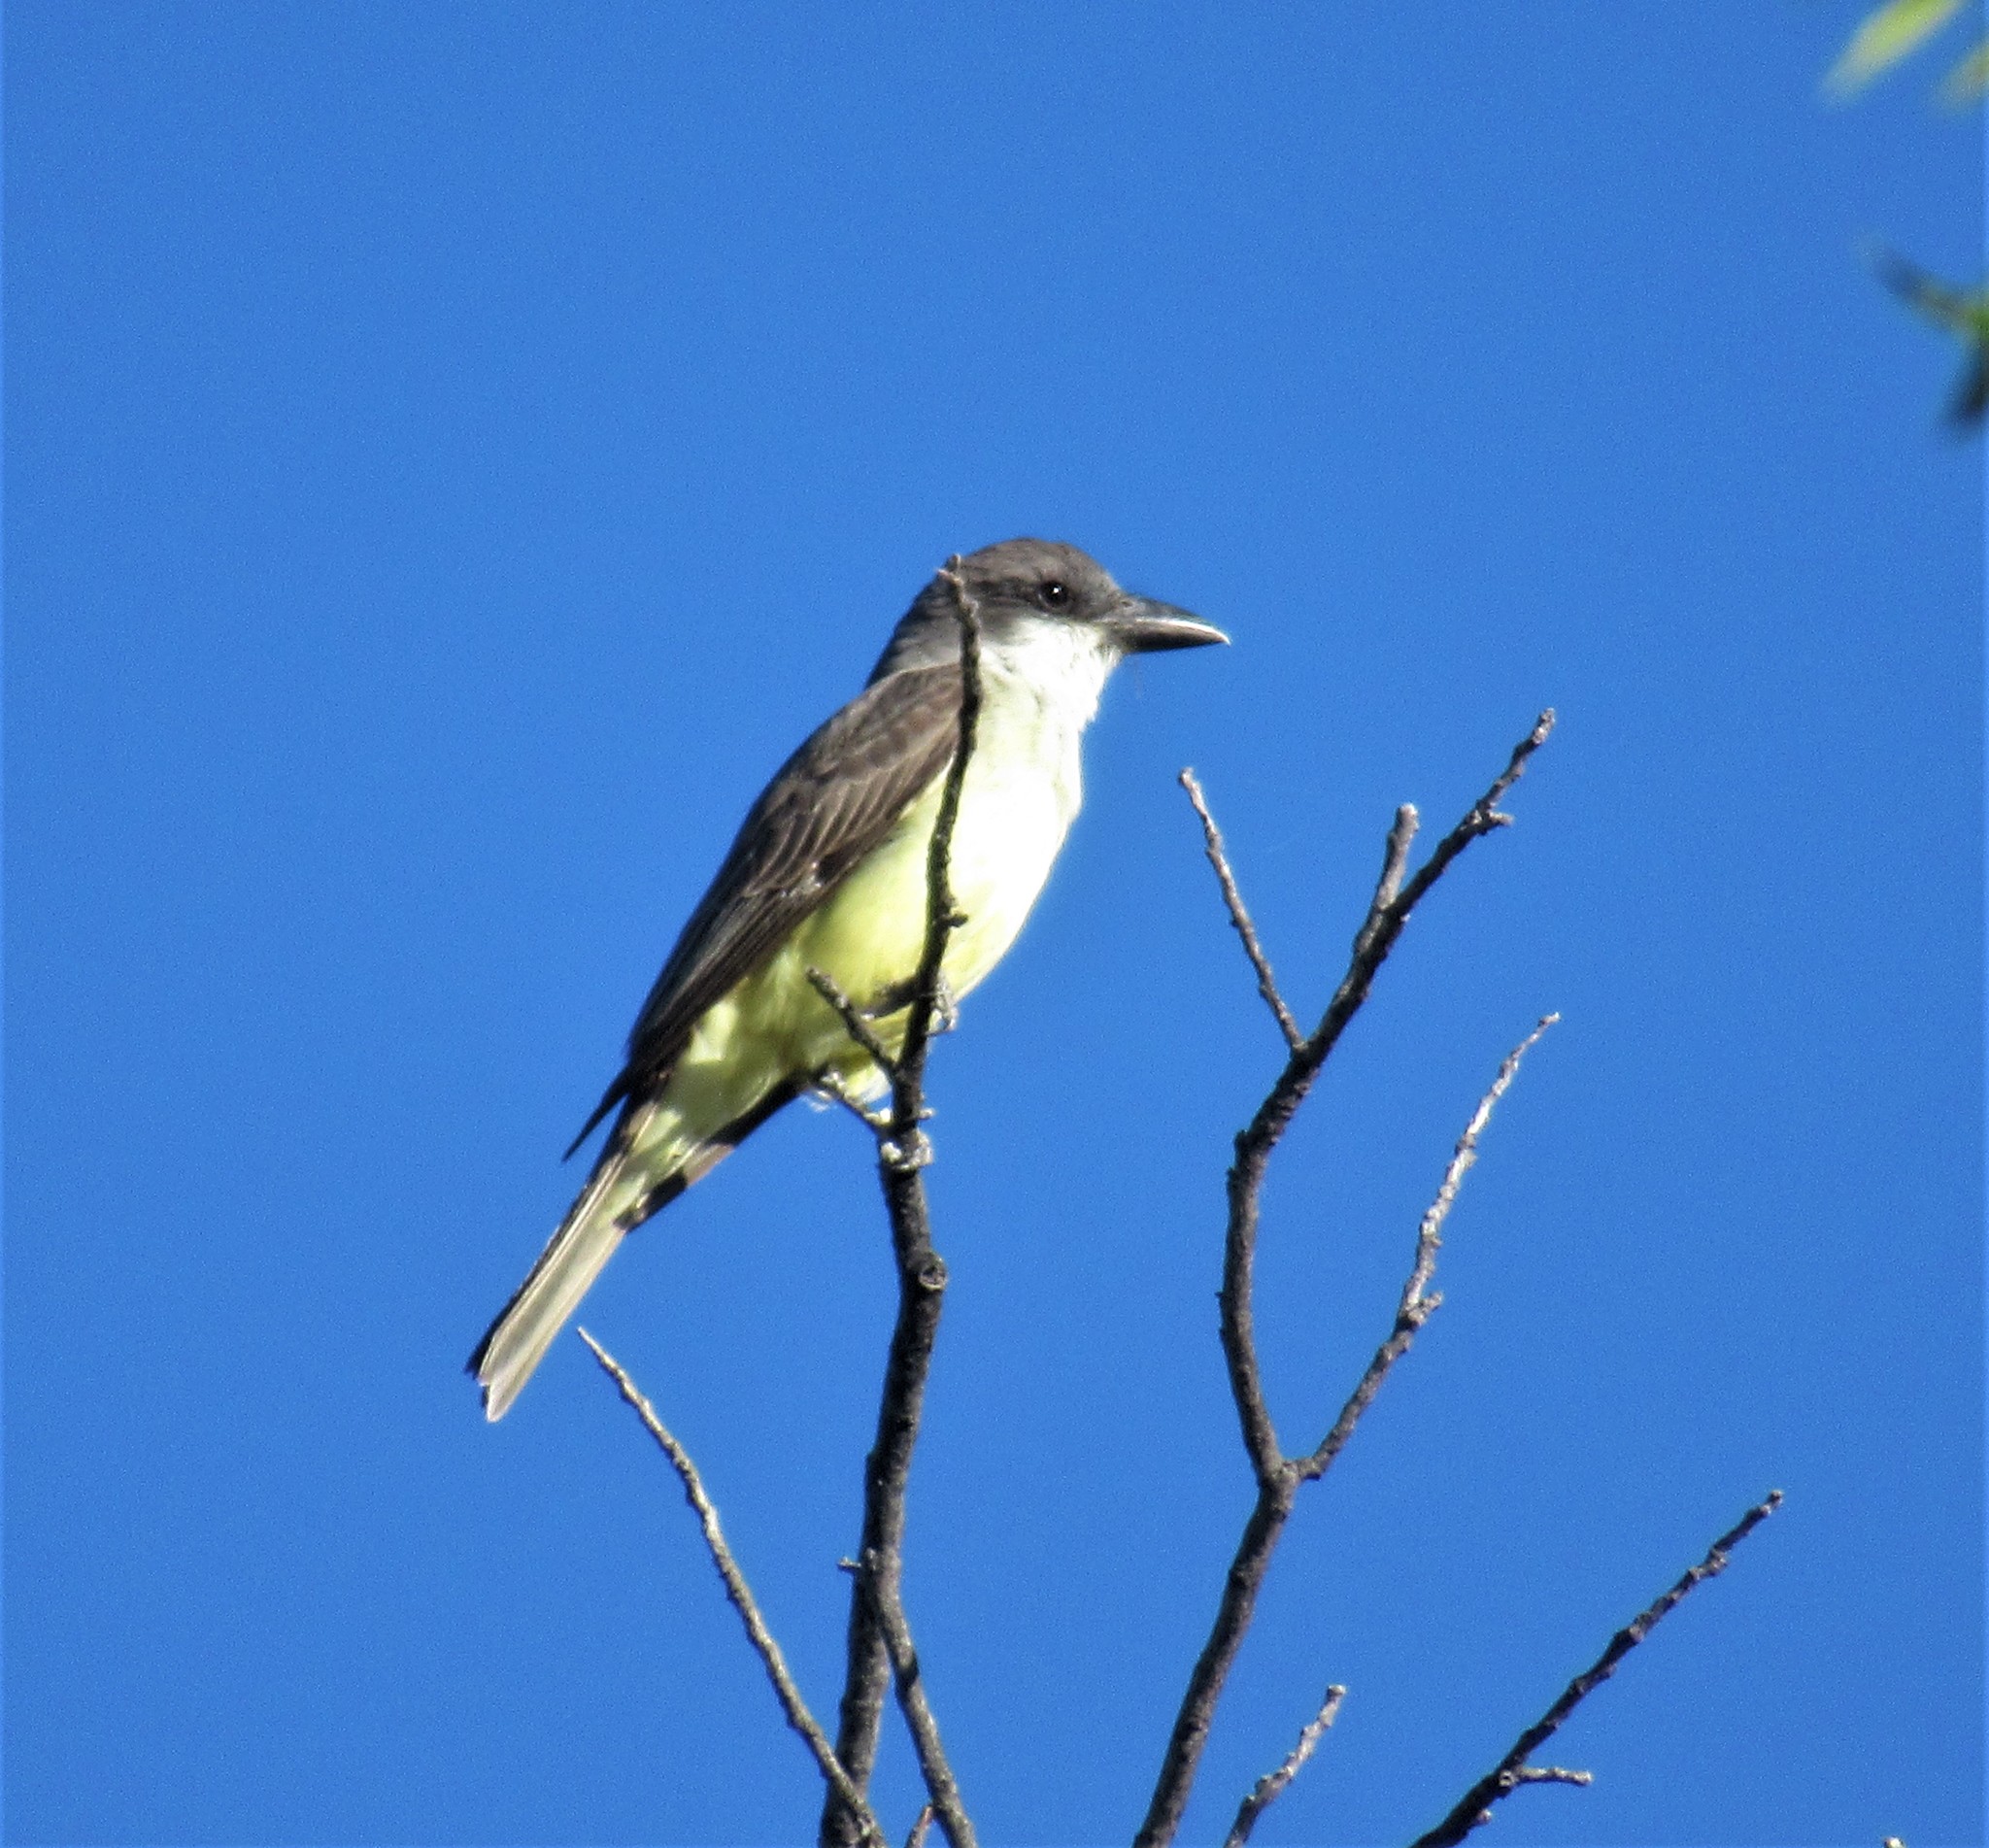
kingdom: Animalia
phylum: Chordata
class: Aves
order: Passeriformes
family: Tyrannidae
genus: Tyrannus
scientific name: Tyrannus crassirostris
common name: Thick-billed kingbird
